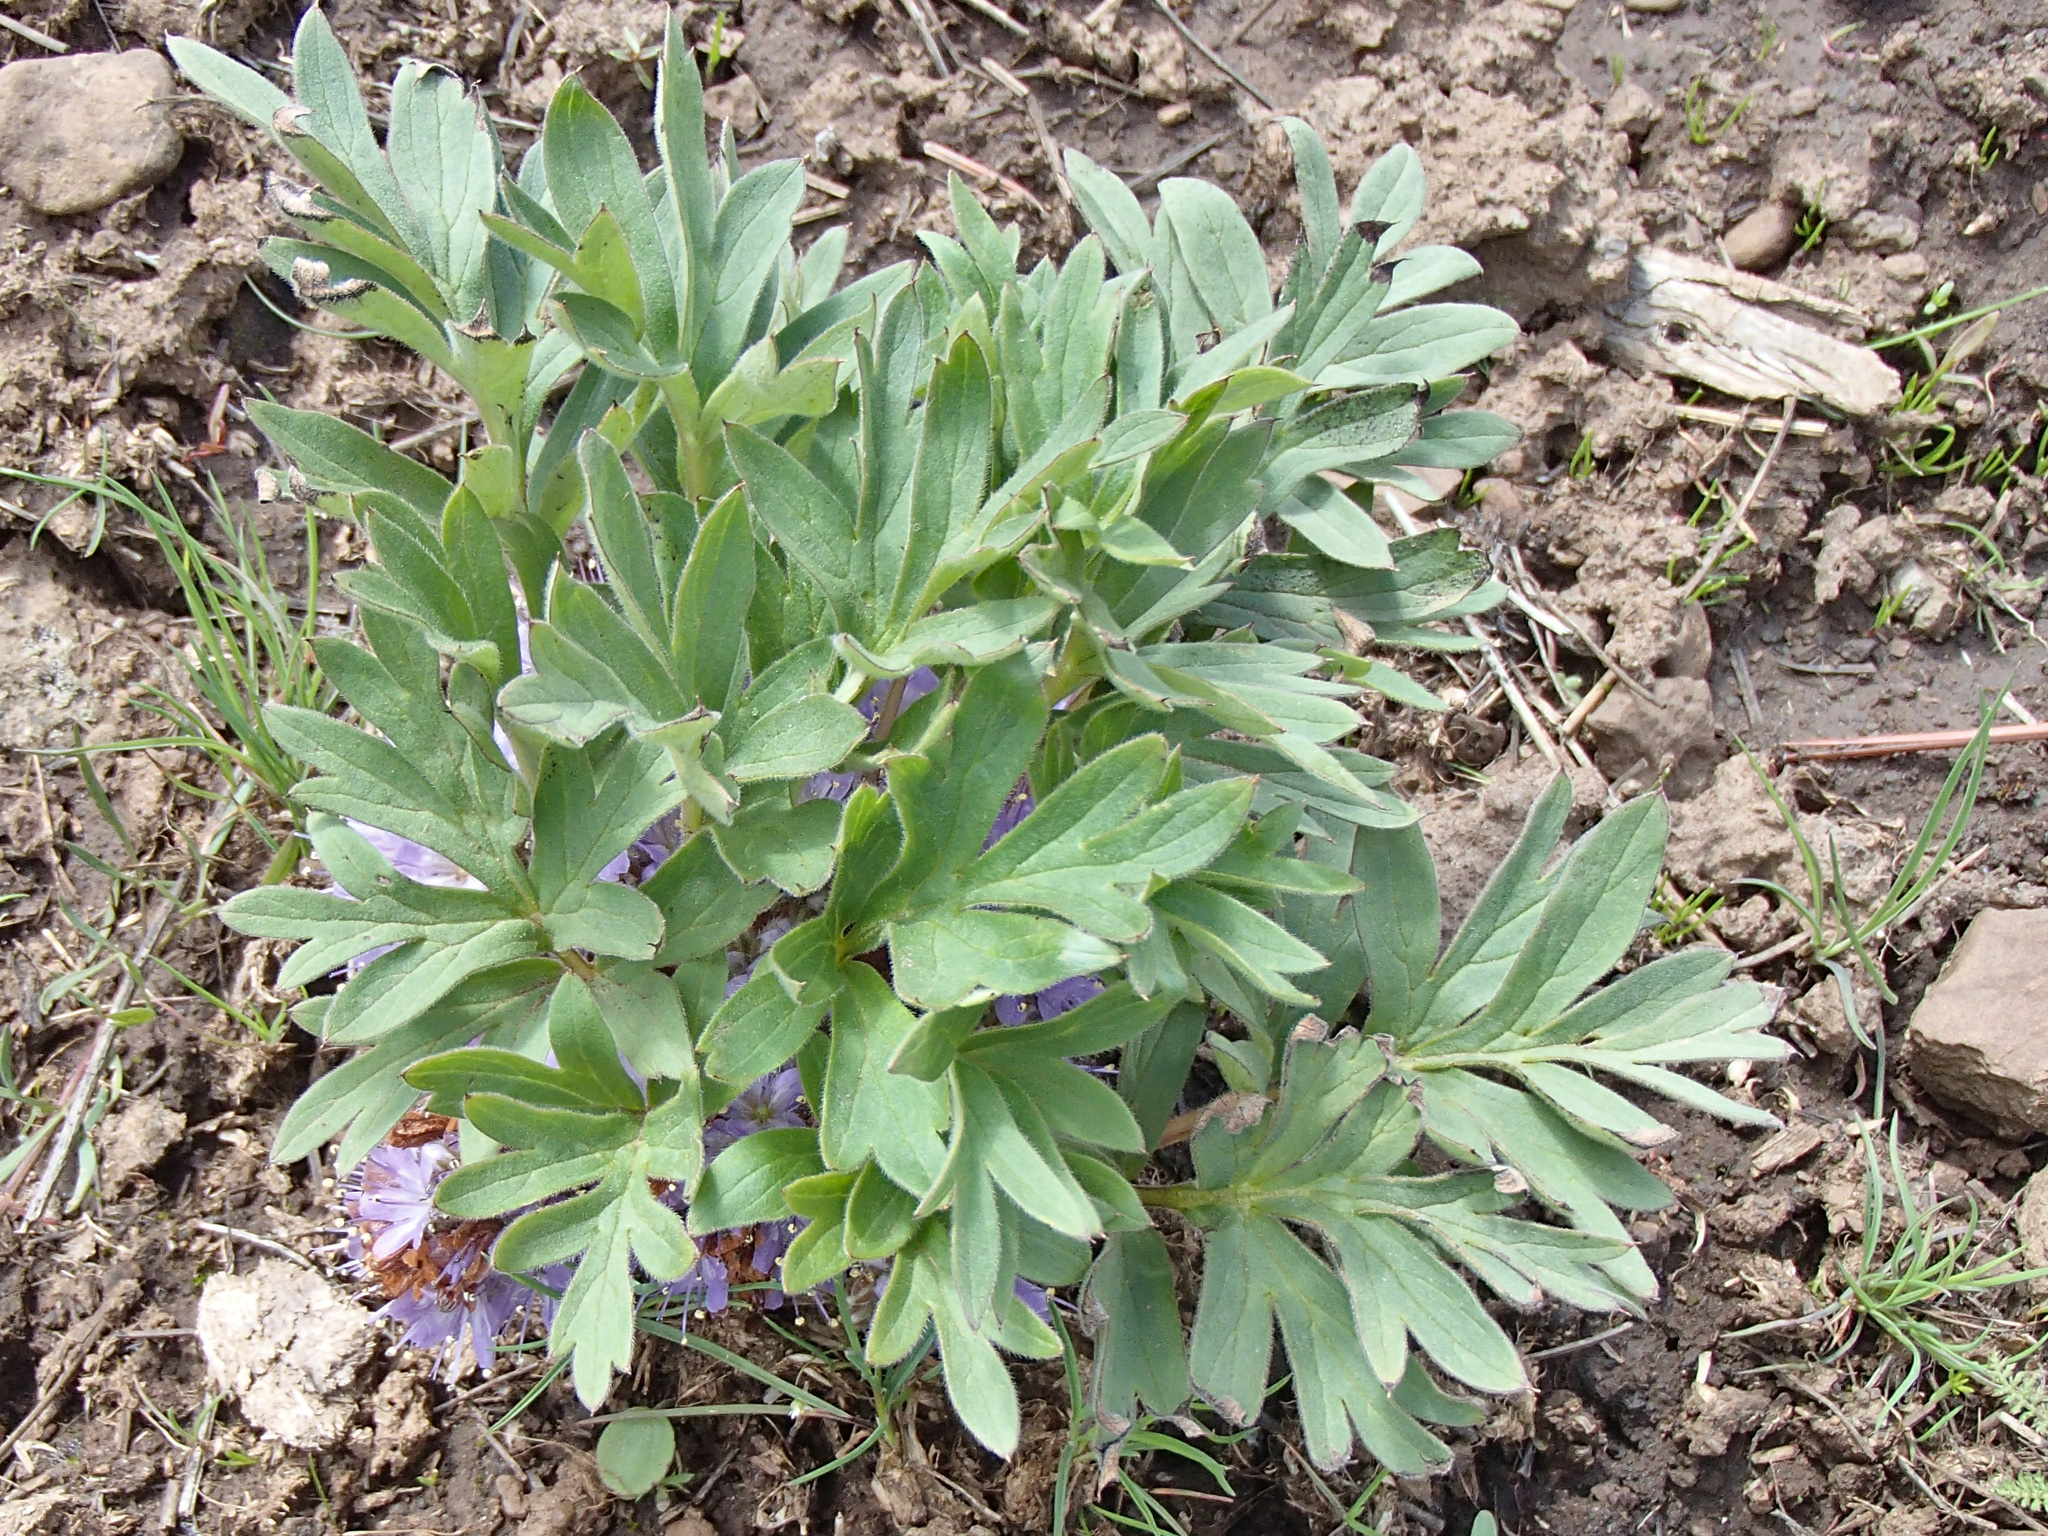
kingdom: Plantae
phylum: Tracheophyta
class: Magnoliopsida
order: Boraginales
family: Hydrophyllaceae
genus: Hydrophyllum
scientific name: Hydrophyllum alpestre
